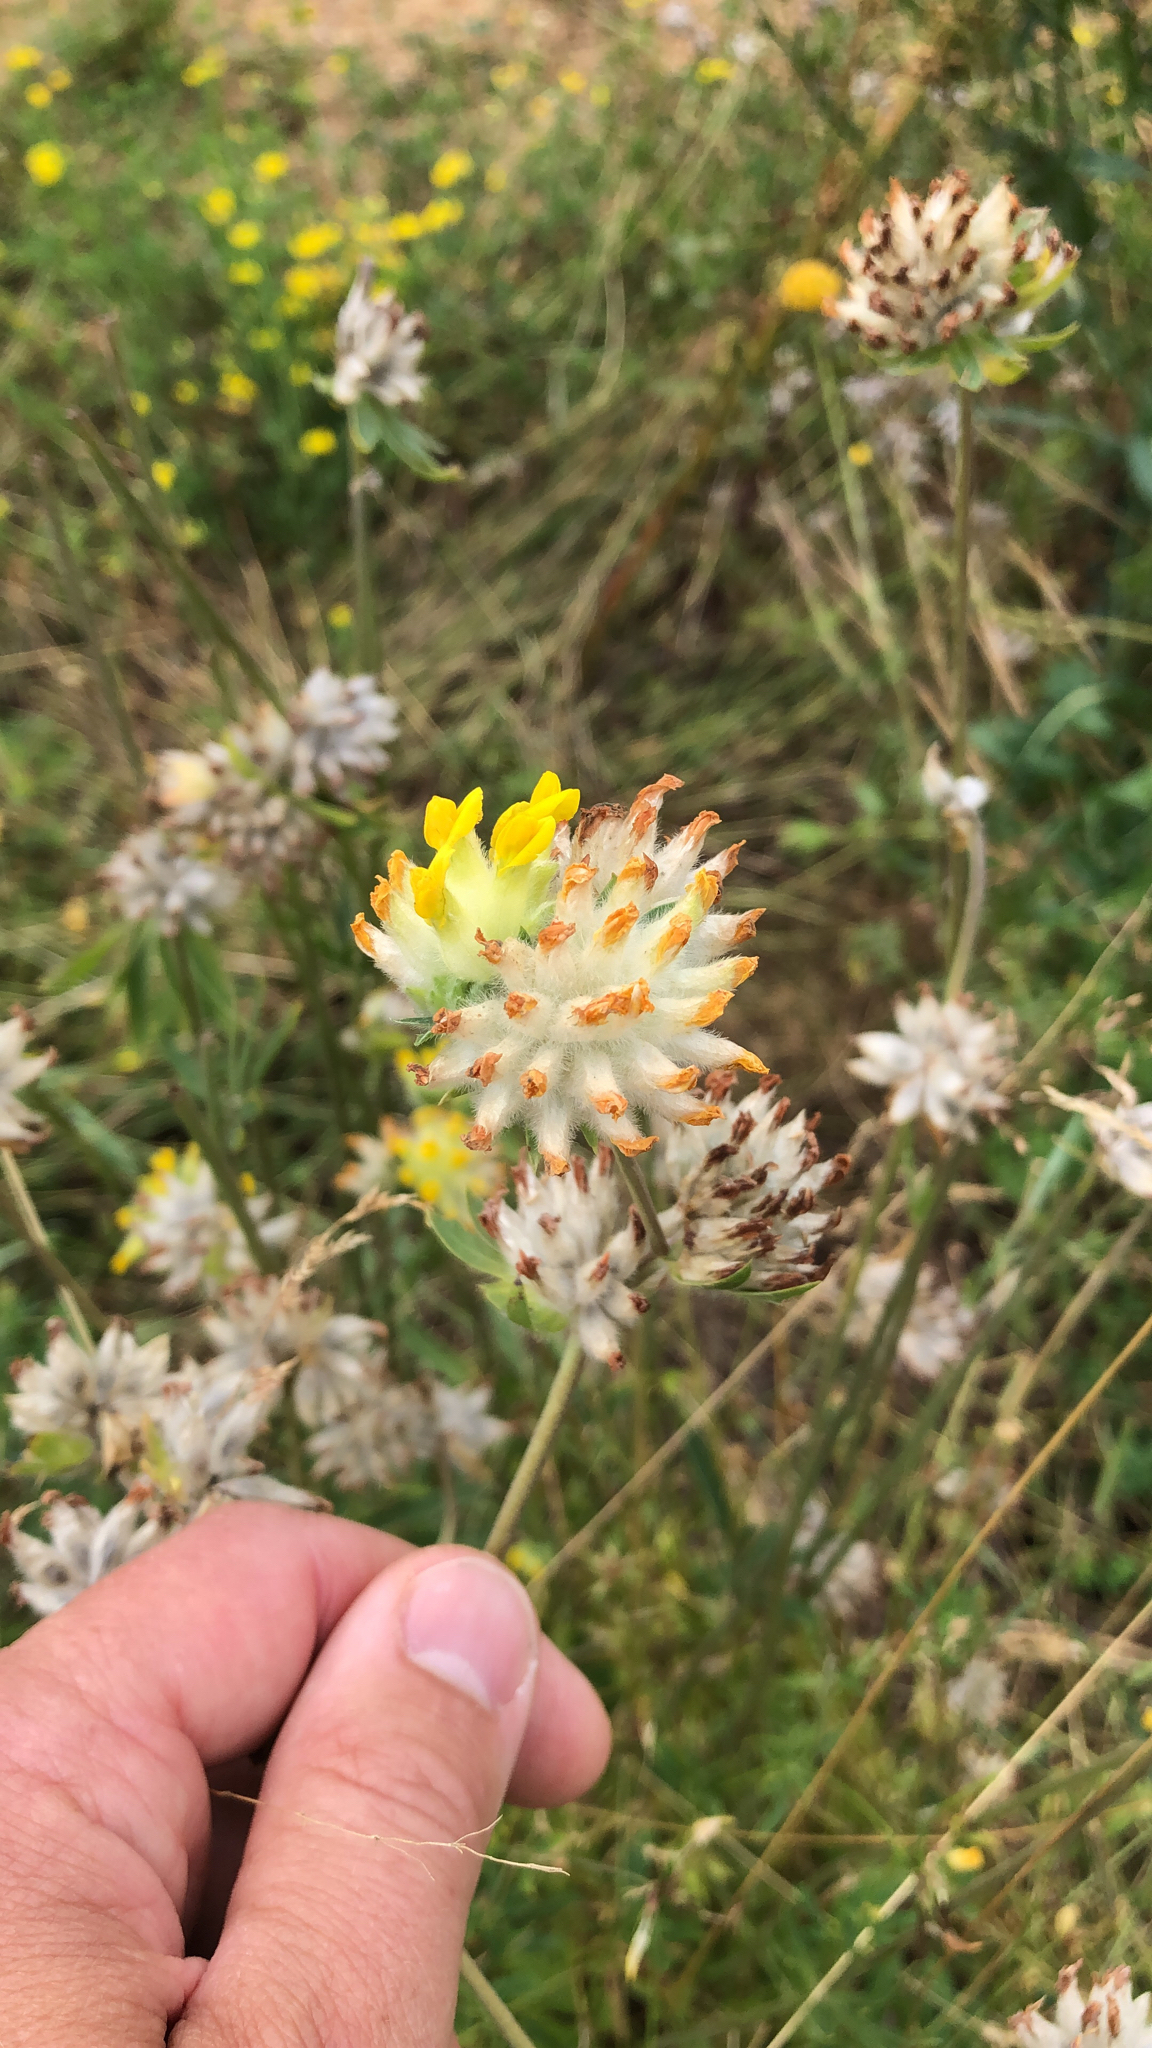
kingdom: Plantae
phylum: Tracheophyta
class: Magnoliopsida
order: Fabales
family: Fabaceae
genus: Anthyllis
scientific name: Anthyllis vulneraria
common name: Kidney vetch
